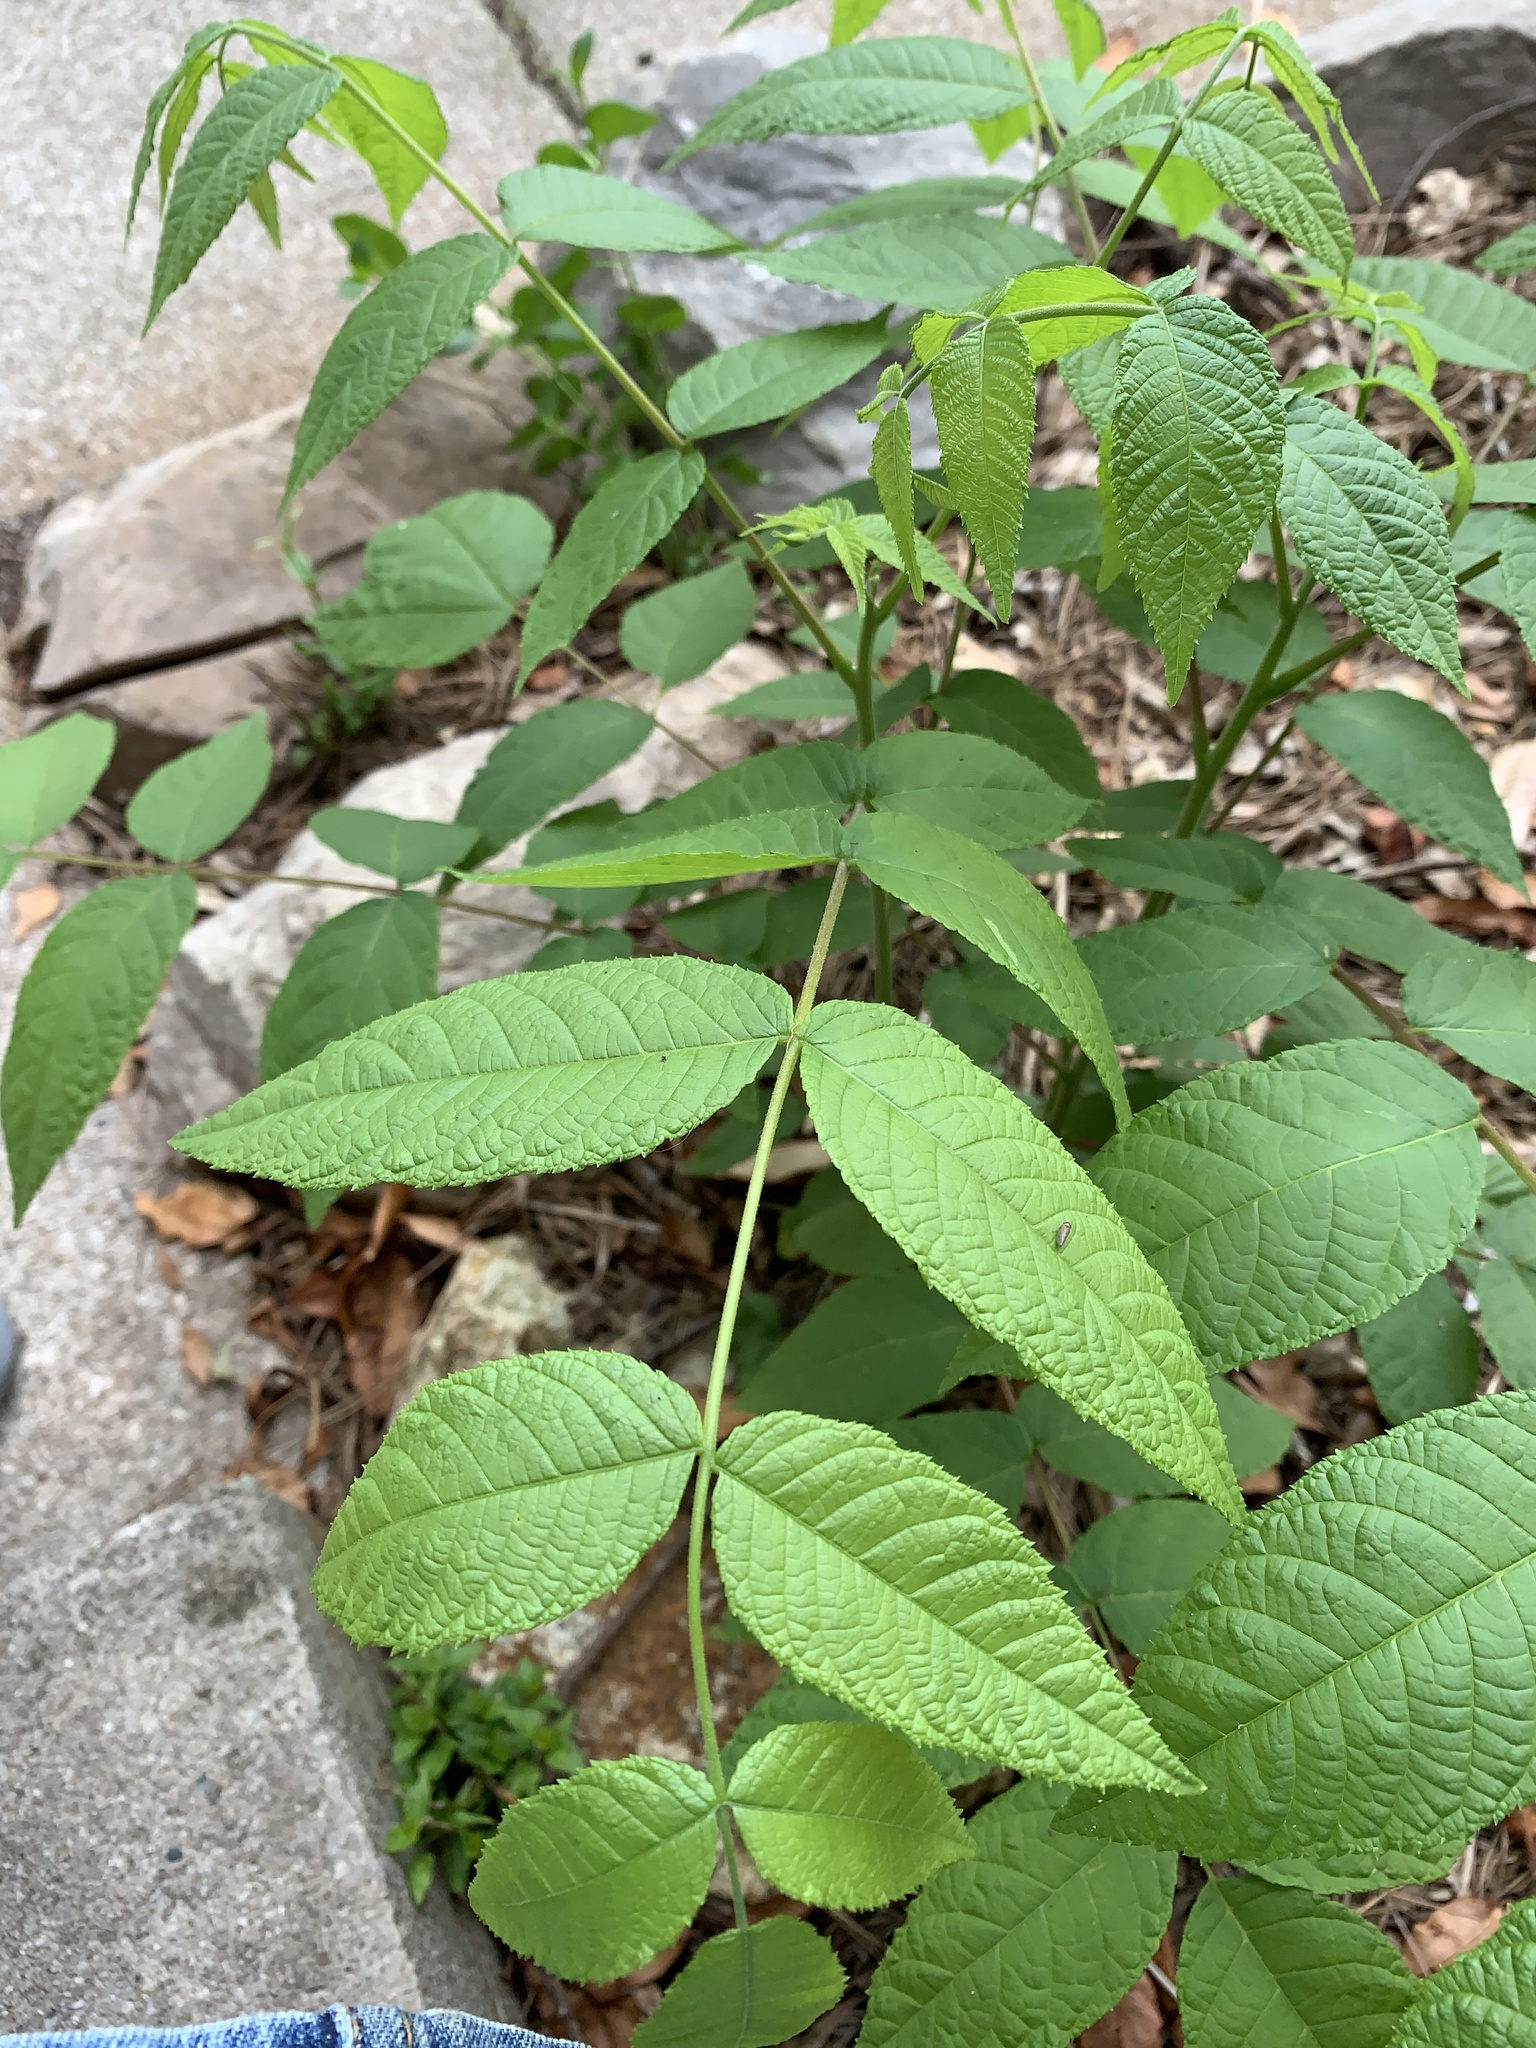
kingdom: Plantae
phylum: Tracheophyta
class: Magnoliopsida
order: Fagales
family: Juglandaceae
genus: Juglans
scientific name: Juglans nigra
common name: Black walnut
